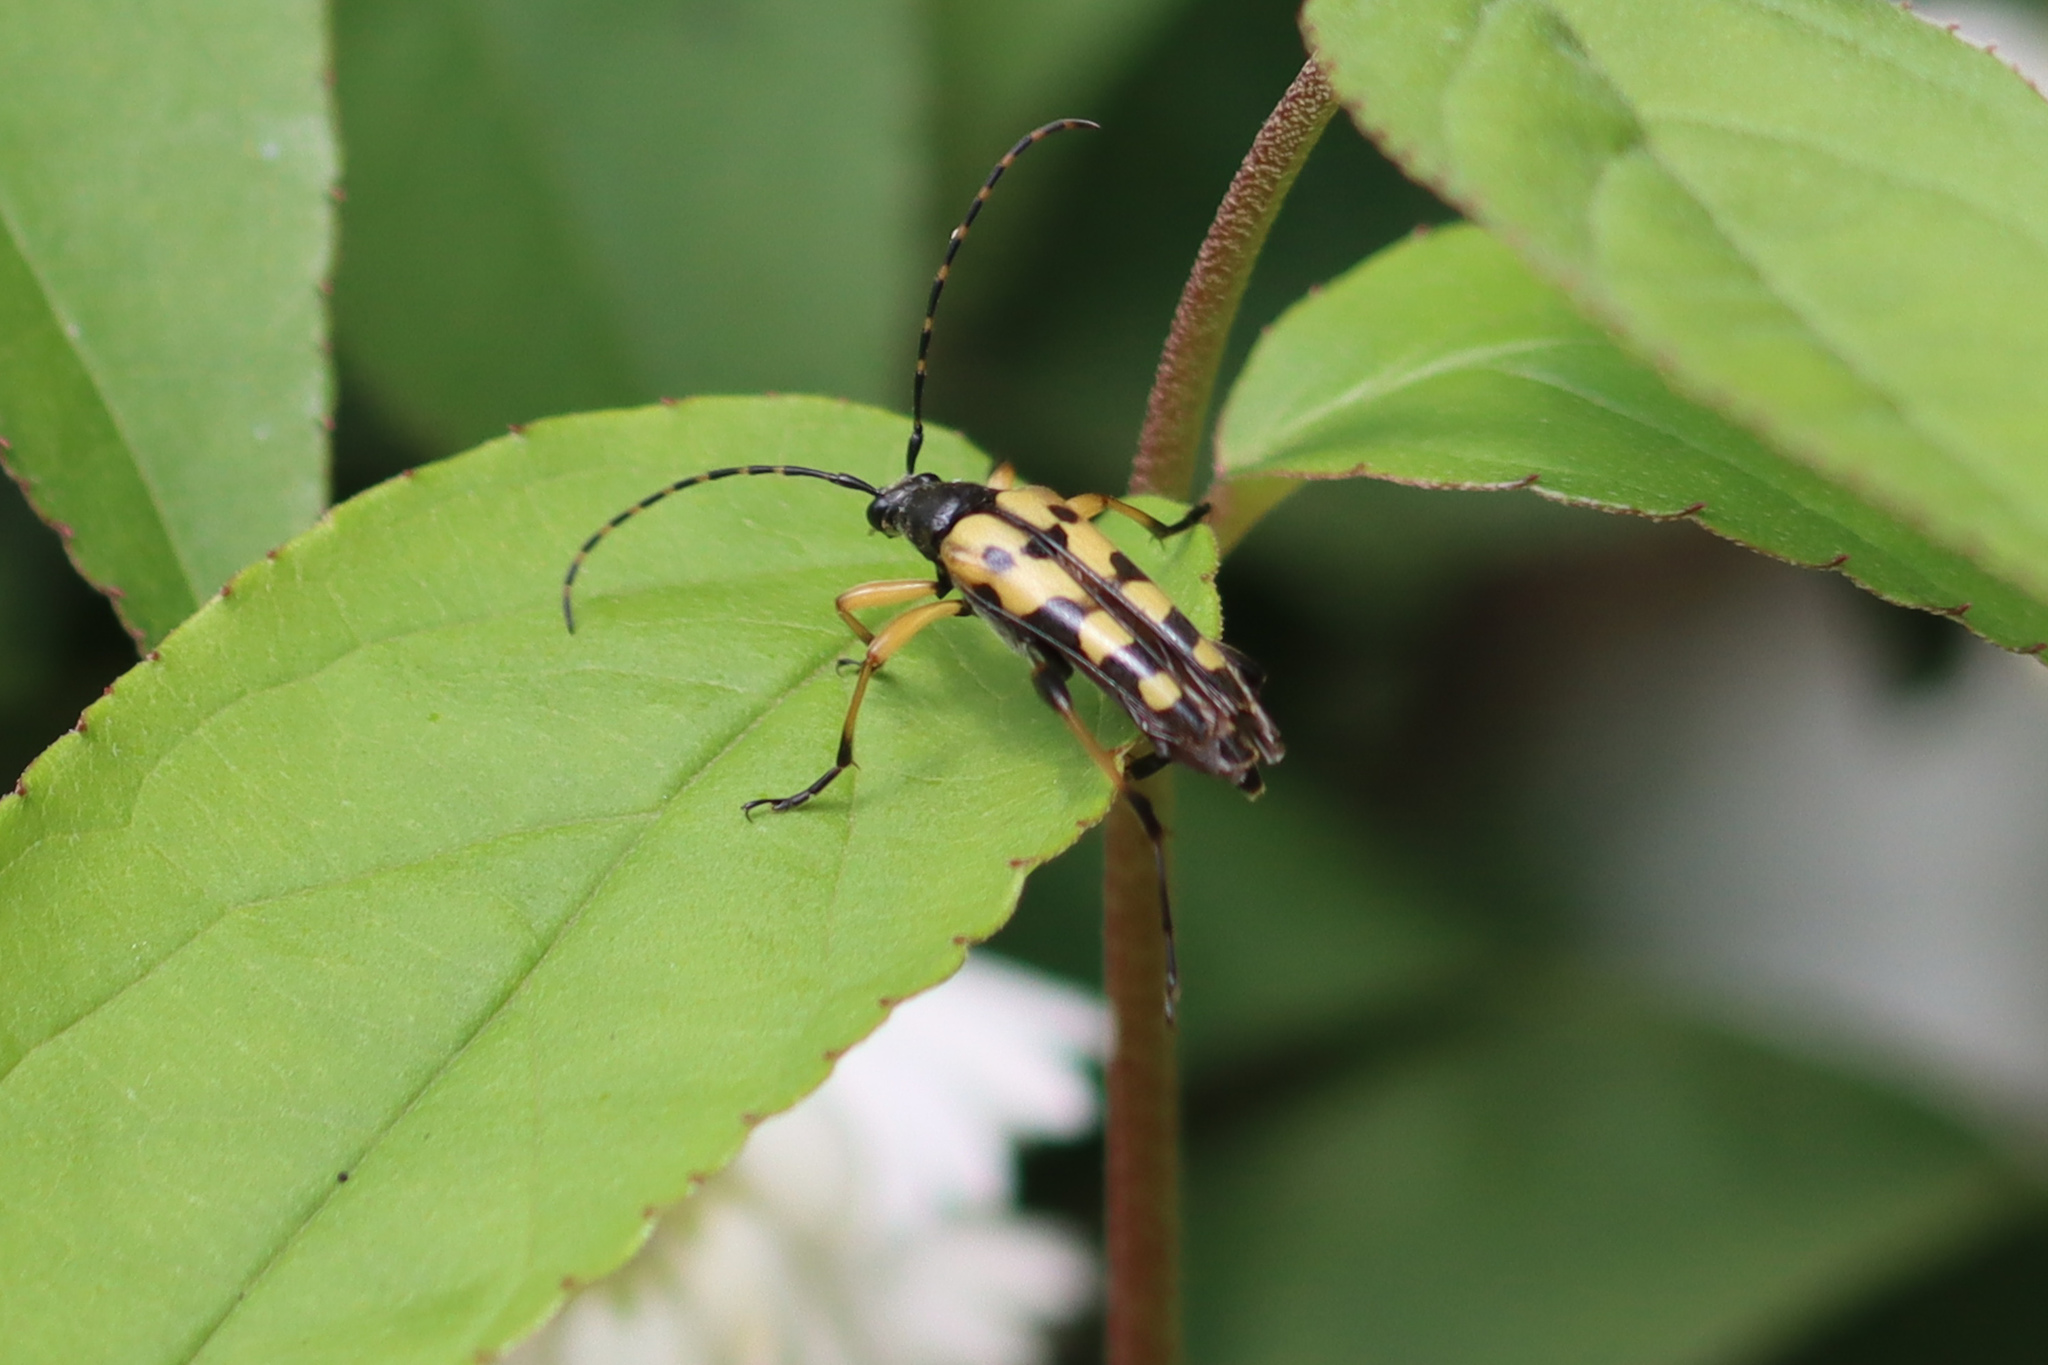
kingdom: Animalia
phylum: Arthropoda
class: Insecta
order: Coleoptera
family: Cerambycidae
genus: Rutpela
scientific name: Rutpela maculata
